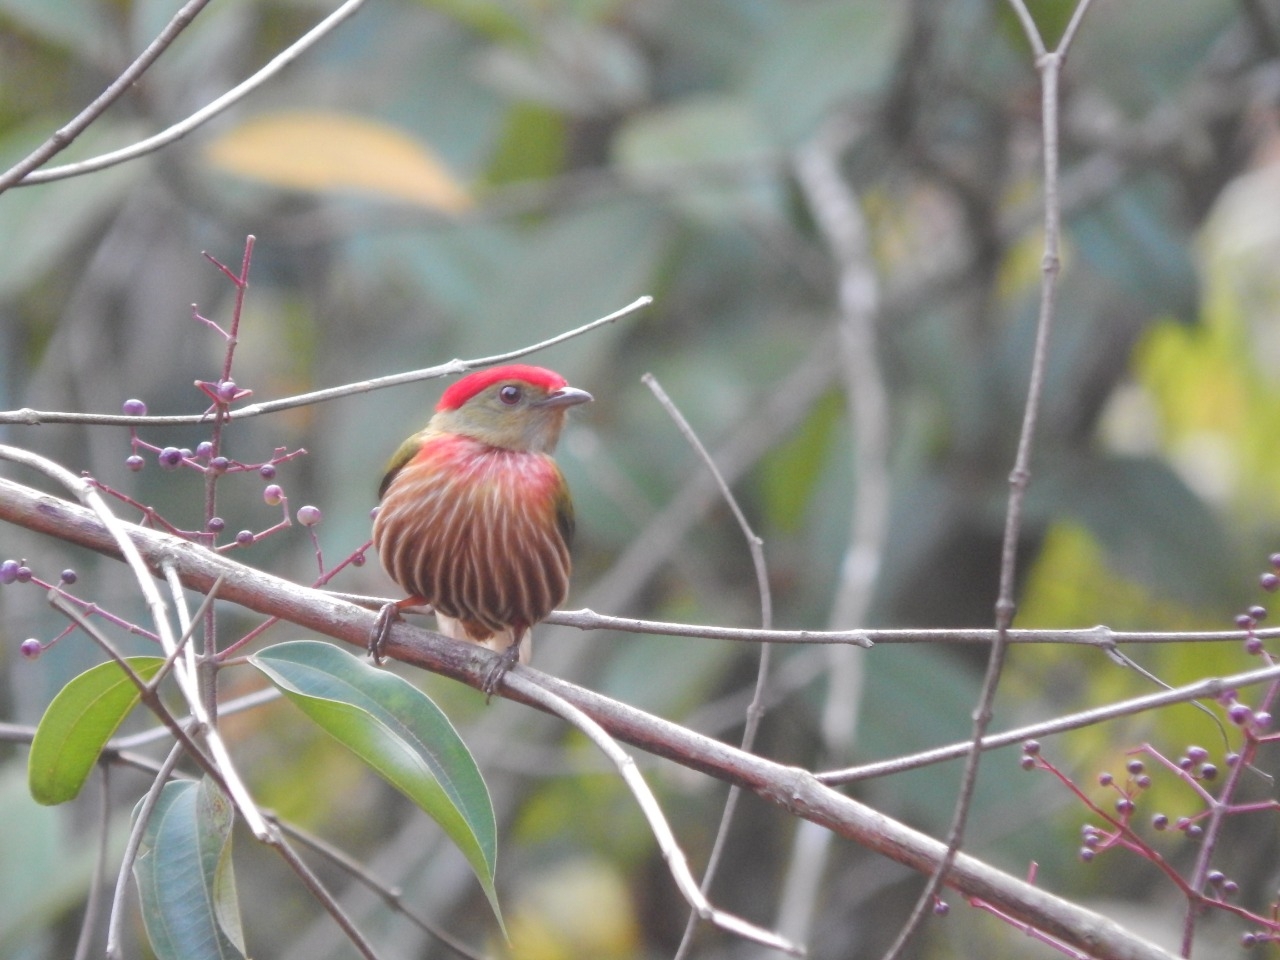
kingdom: Animalia
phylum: Chordata
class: Aves
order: Passeriformes
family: Pipridae
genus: Machaeropterus
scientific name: Machaeropterus striolatus
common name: Striolated manakin
